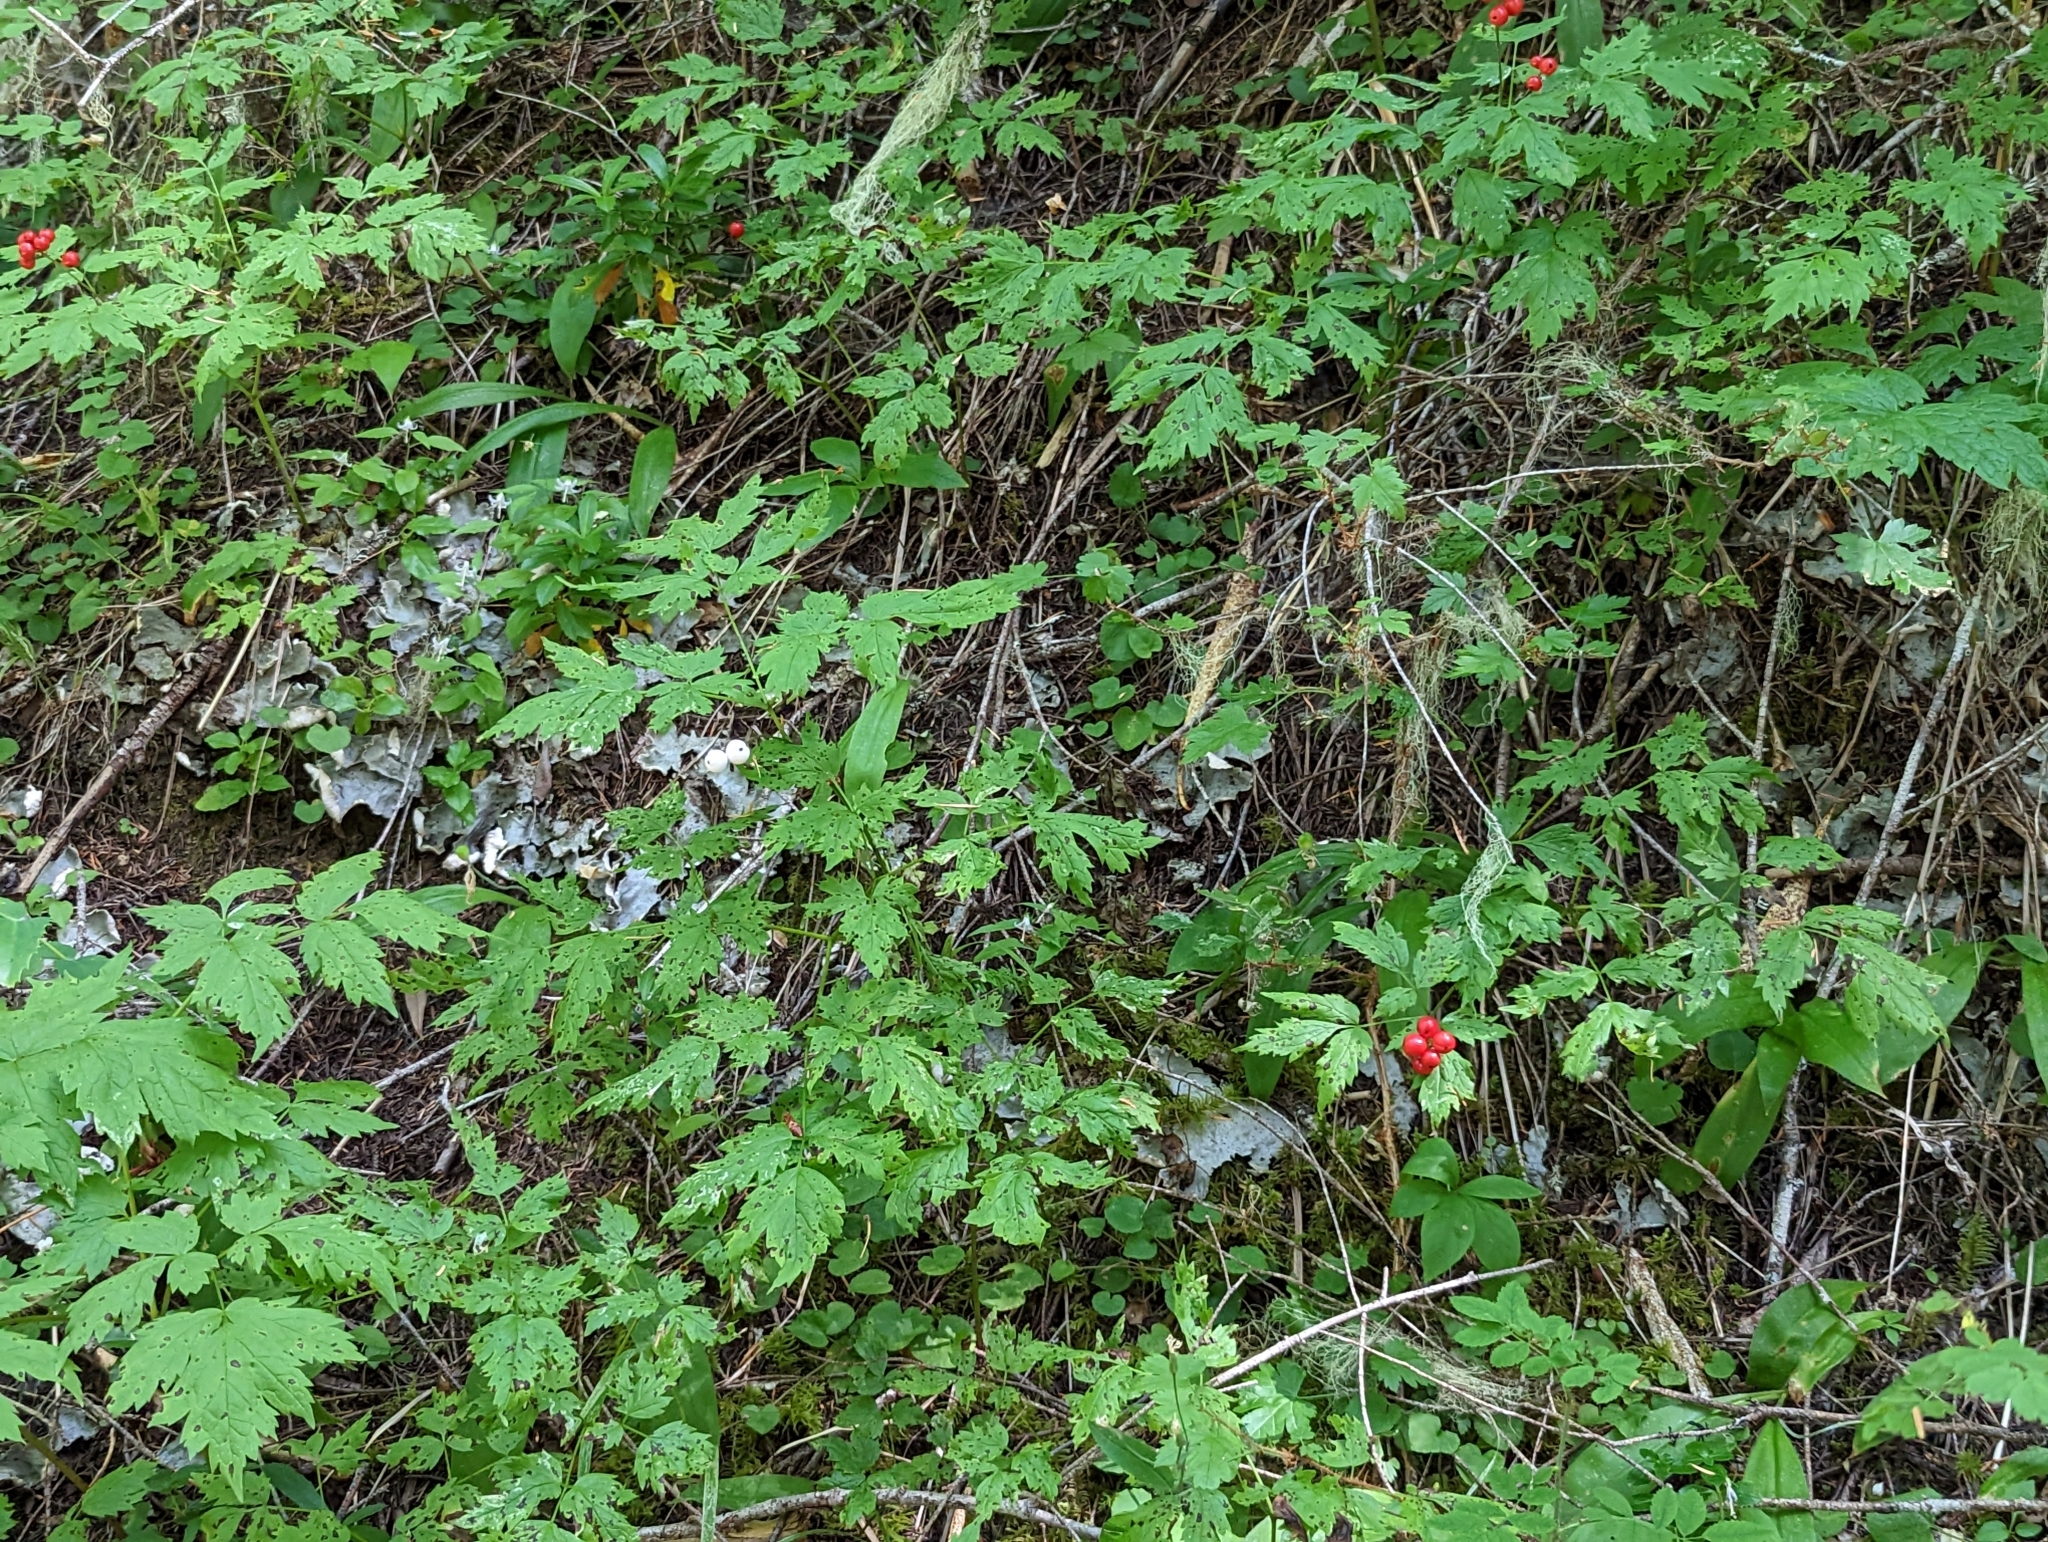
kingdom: Plantae
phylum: Tracheophyta
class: Magnoliopsida
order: Ranunculales
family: Ranunculaceae
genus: Actaea
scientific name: Actaea rubra
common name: Red baneberry
